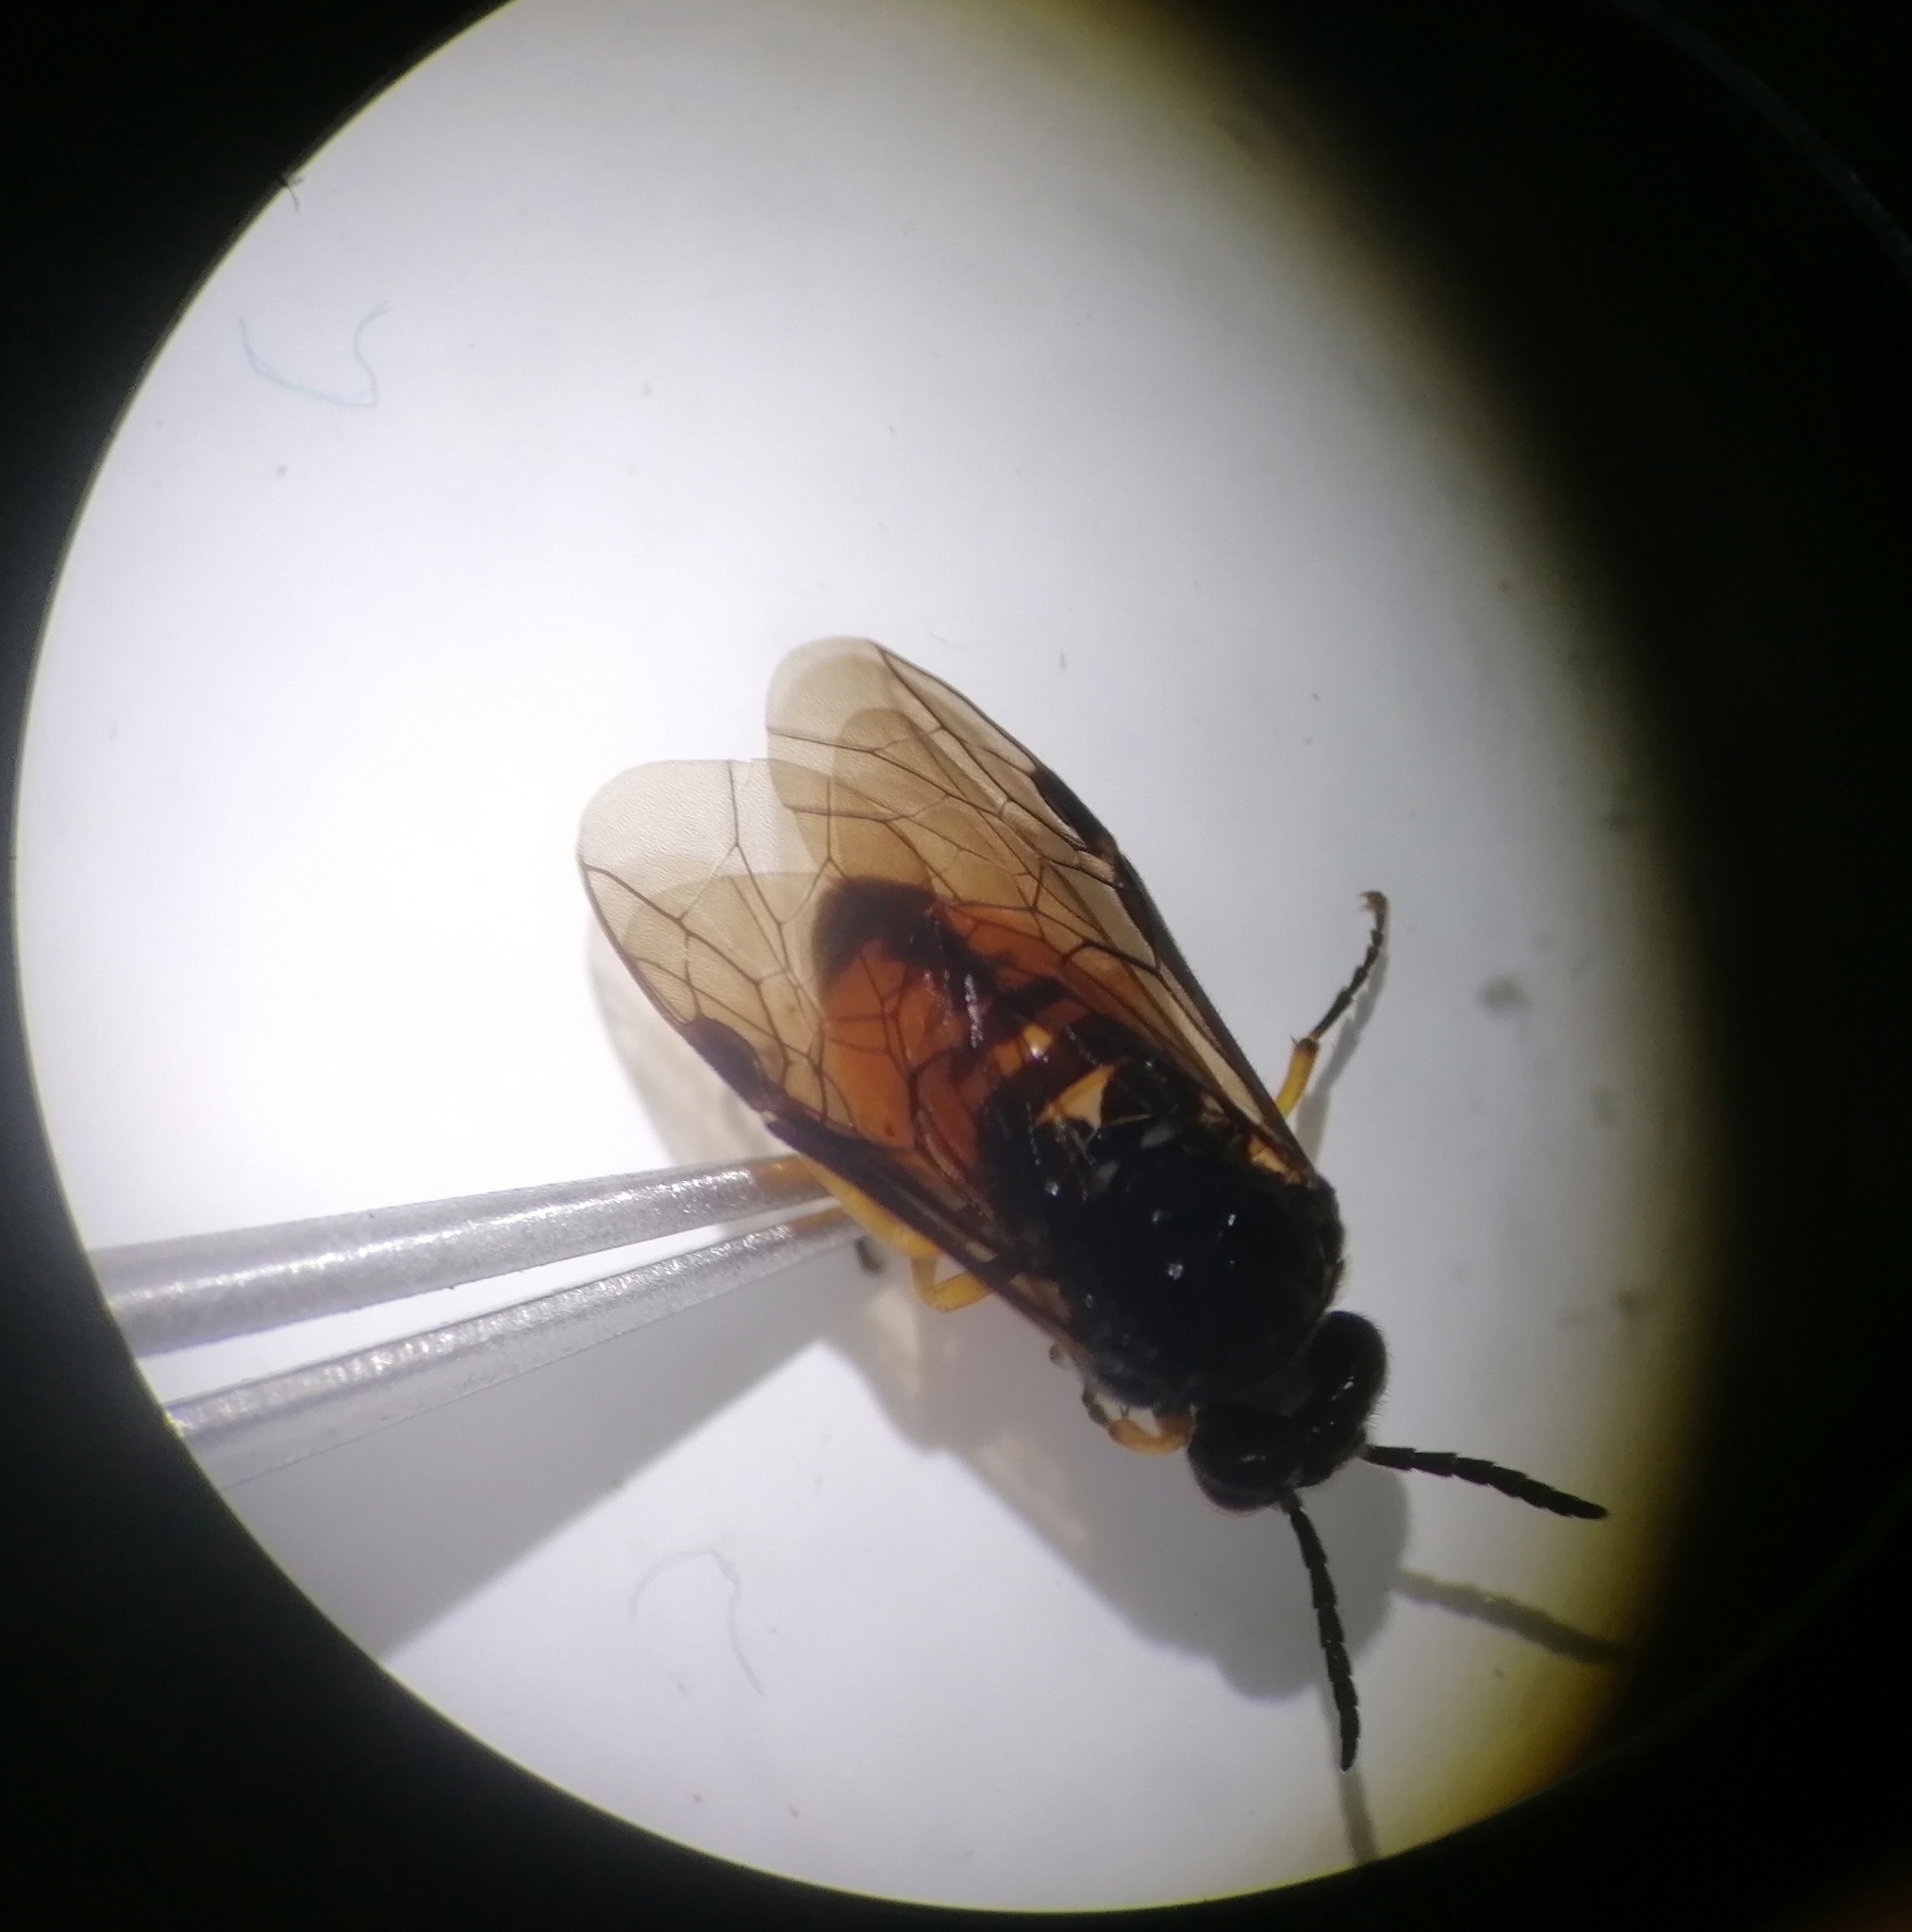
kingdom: Animalia
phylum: Arthropoda
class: Insecta
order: Hymenoptera
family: Tenthredinidae
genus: Eutomostethus
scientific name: Eutomostethus luteiventris
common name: Tenthredid wasp
